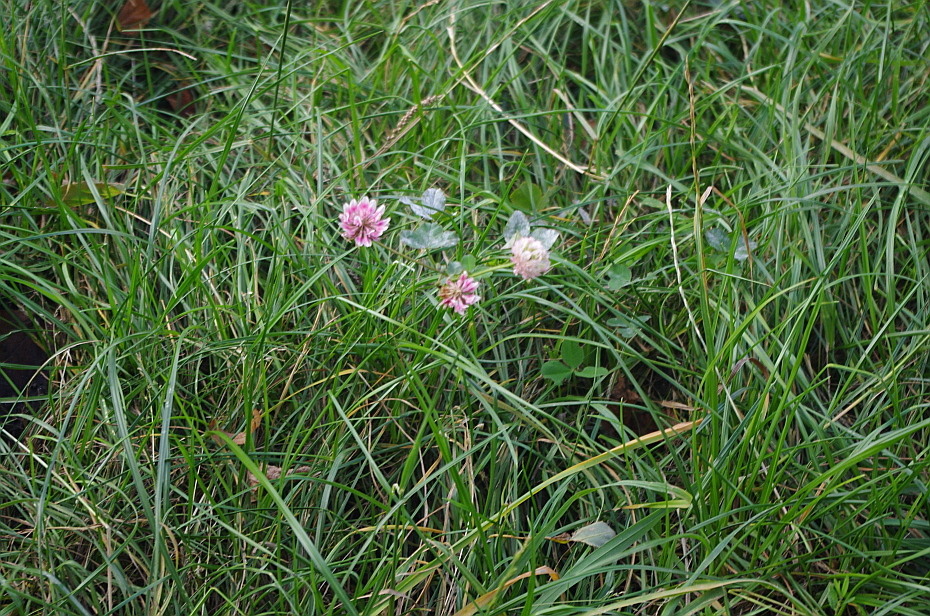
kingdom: Plantae
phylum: Tracheophyta
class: Magnoliopsida
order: Fabales
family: Fabaceae
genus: Trifolium
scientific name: Trifolium hybridum
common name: Alsike clover
